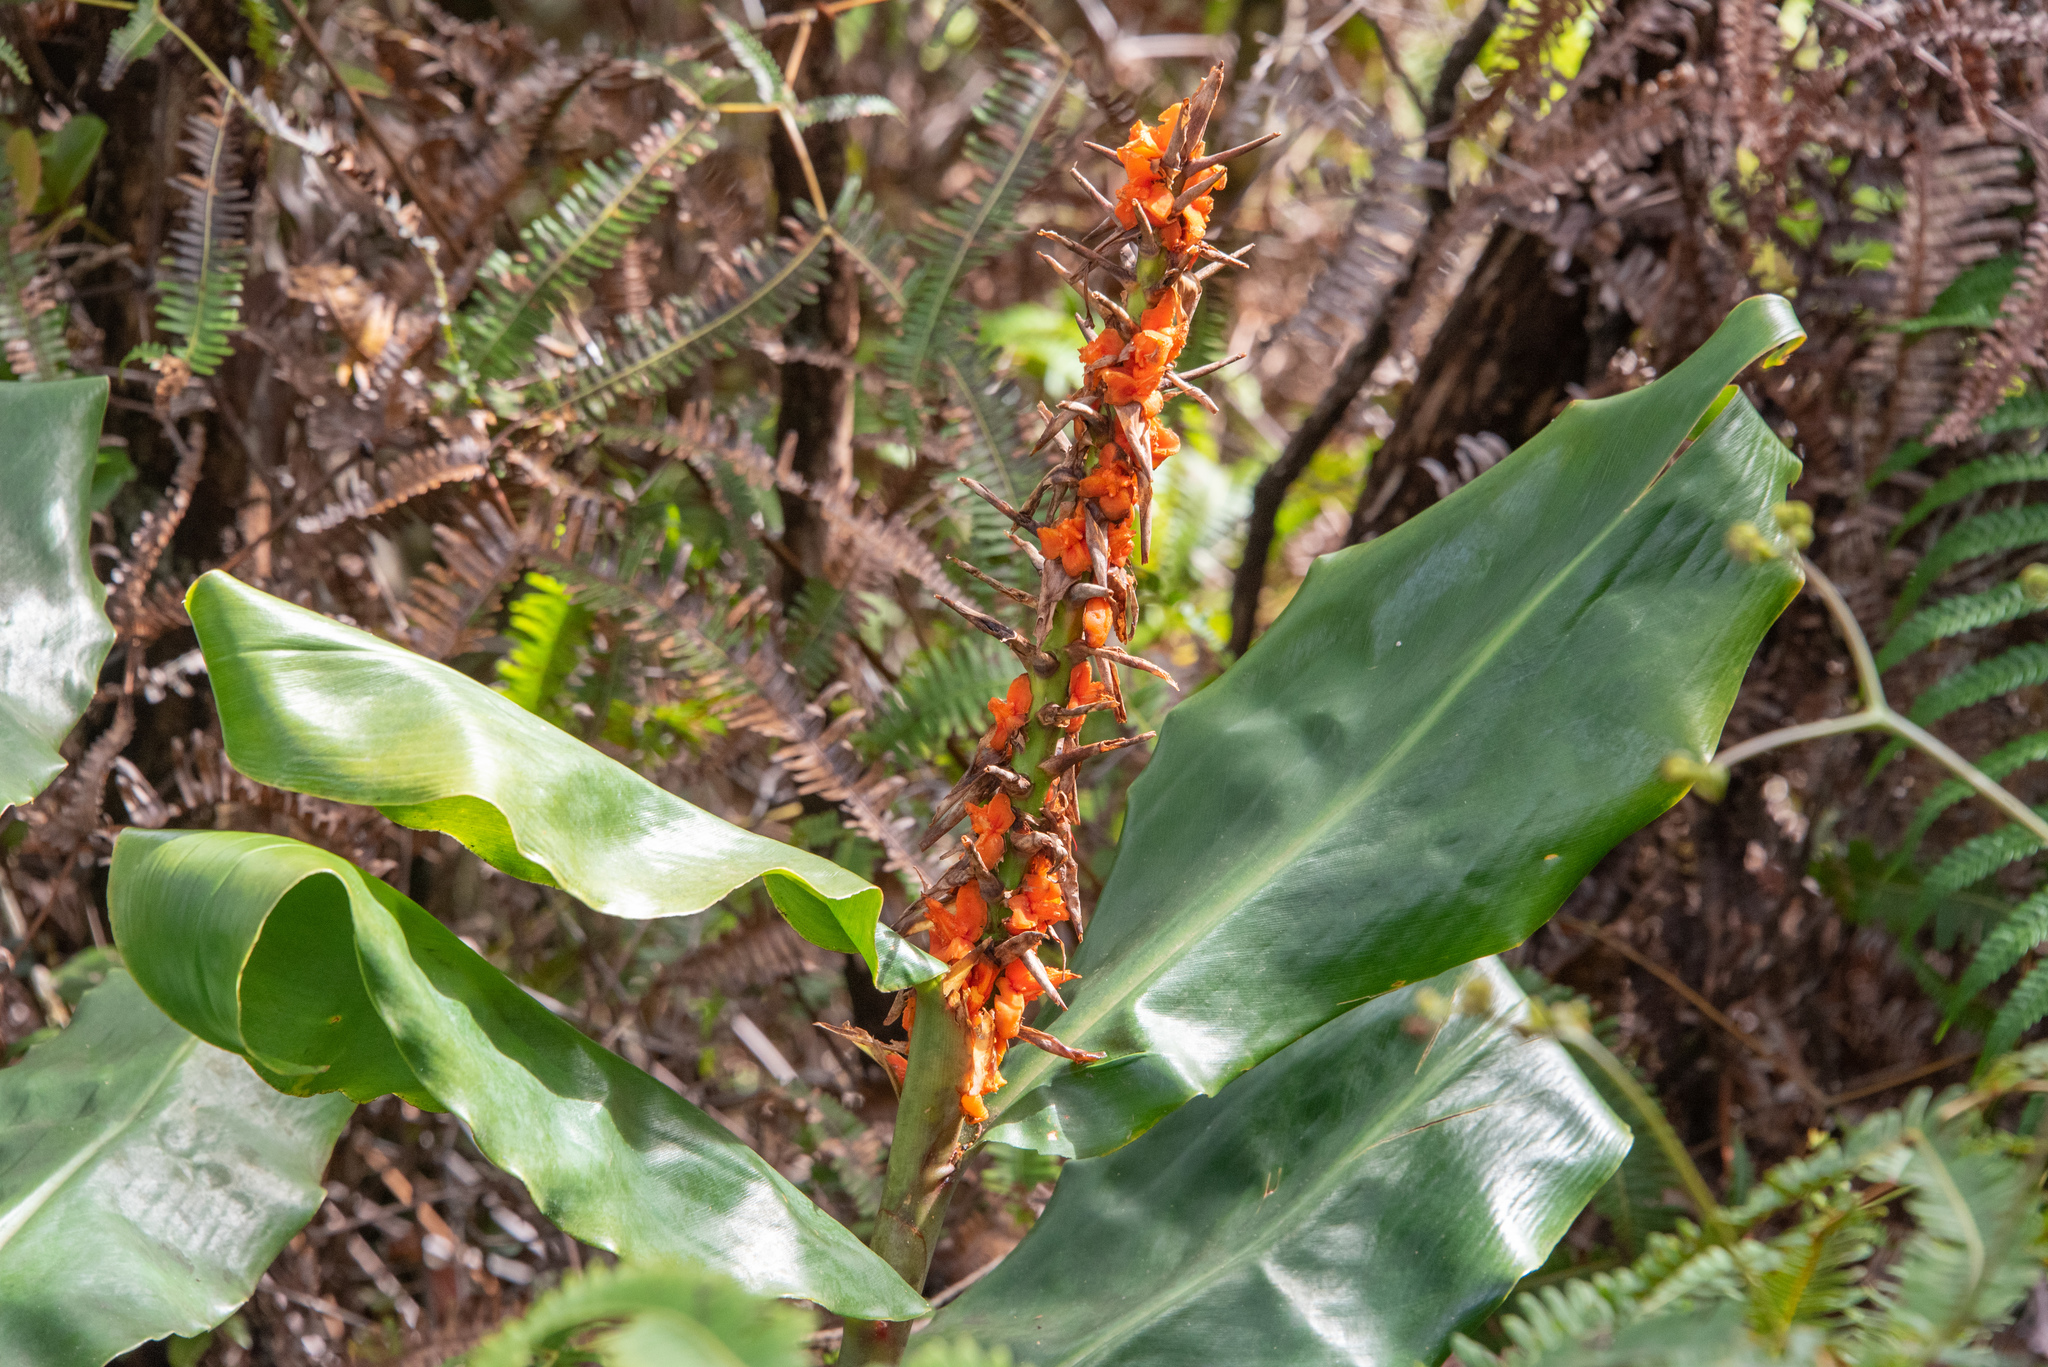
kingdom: Plantae
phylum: Tracheophyta
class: Liliopsida
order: Zingiberales
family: Zingiberaceae
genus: Hedychium
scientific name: Hedychium gardnerianum
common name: Himalayan ginger
